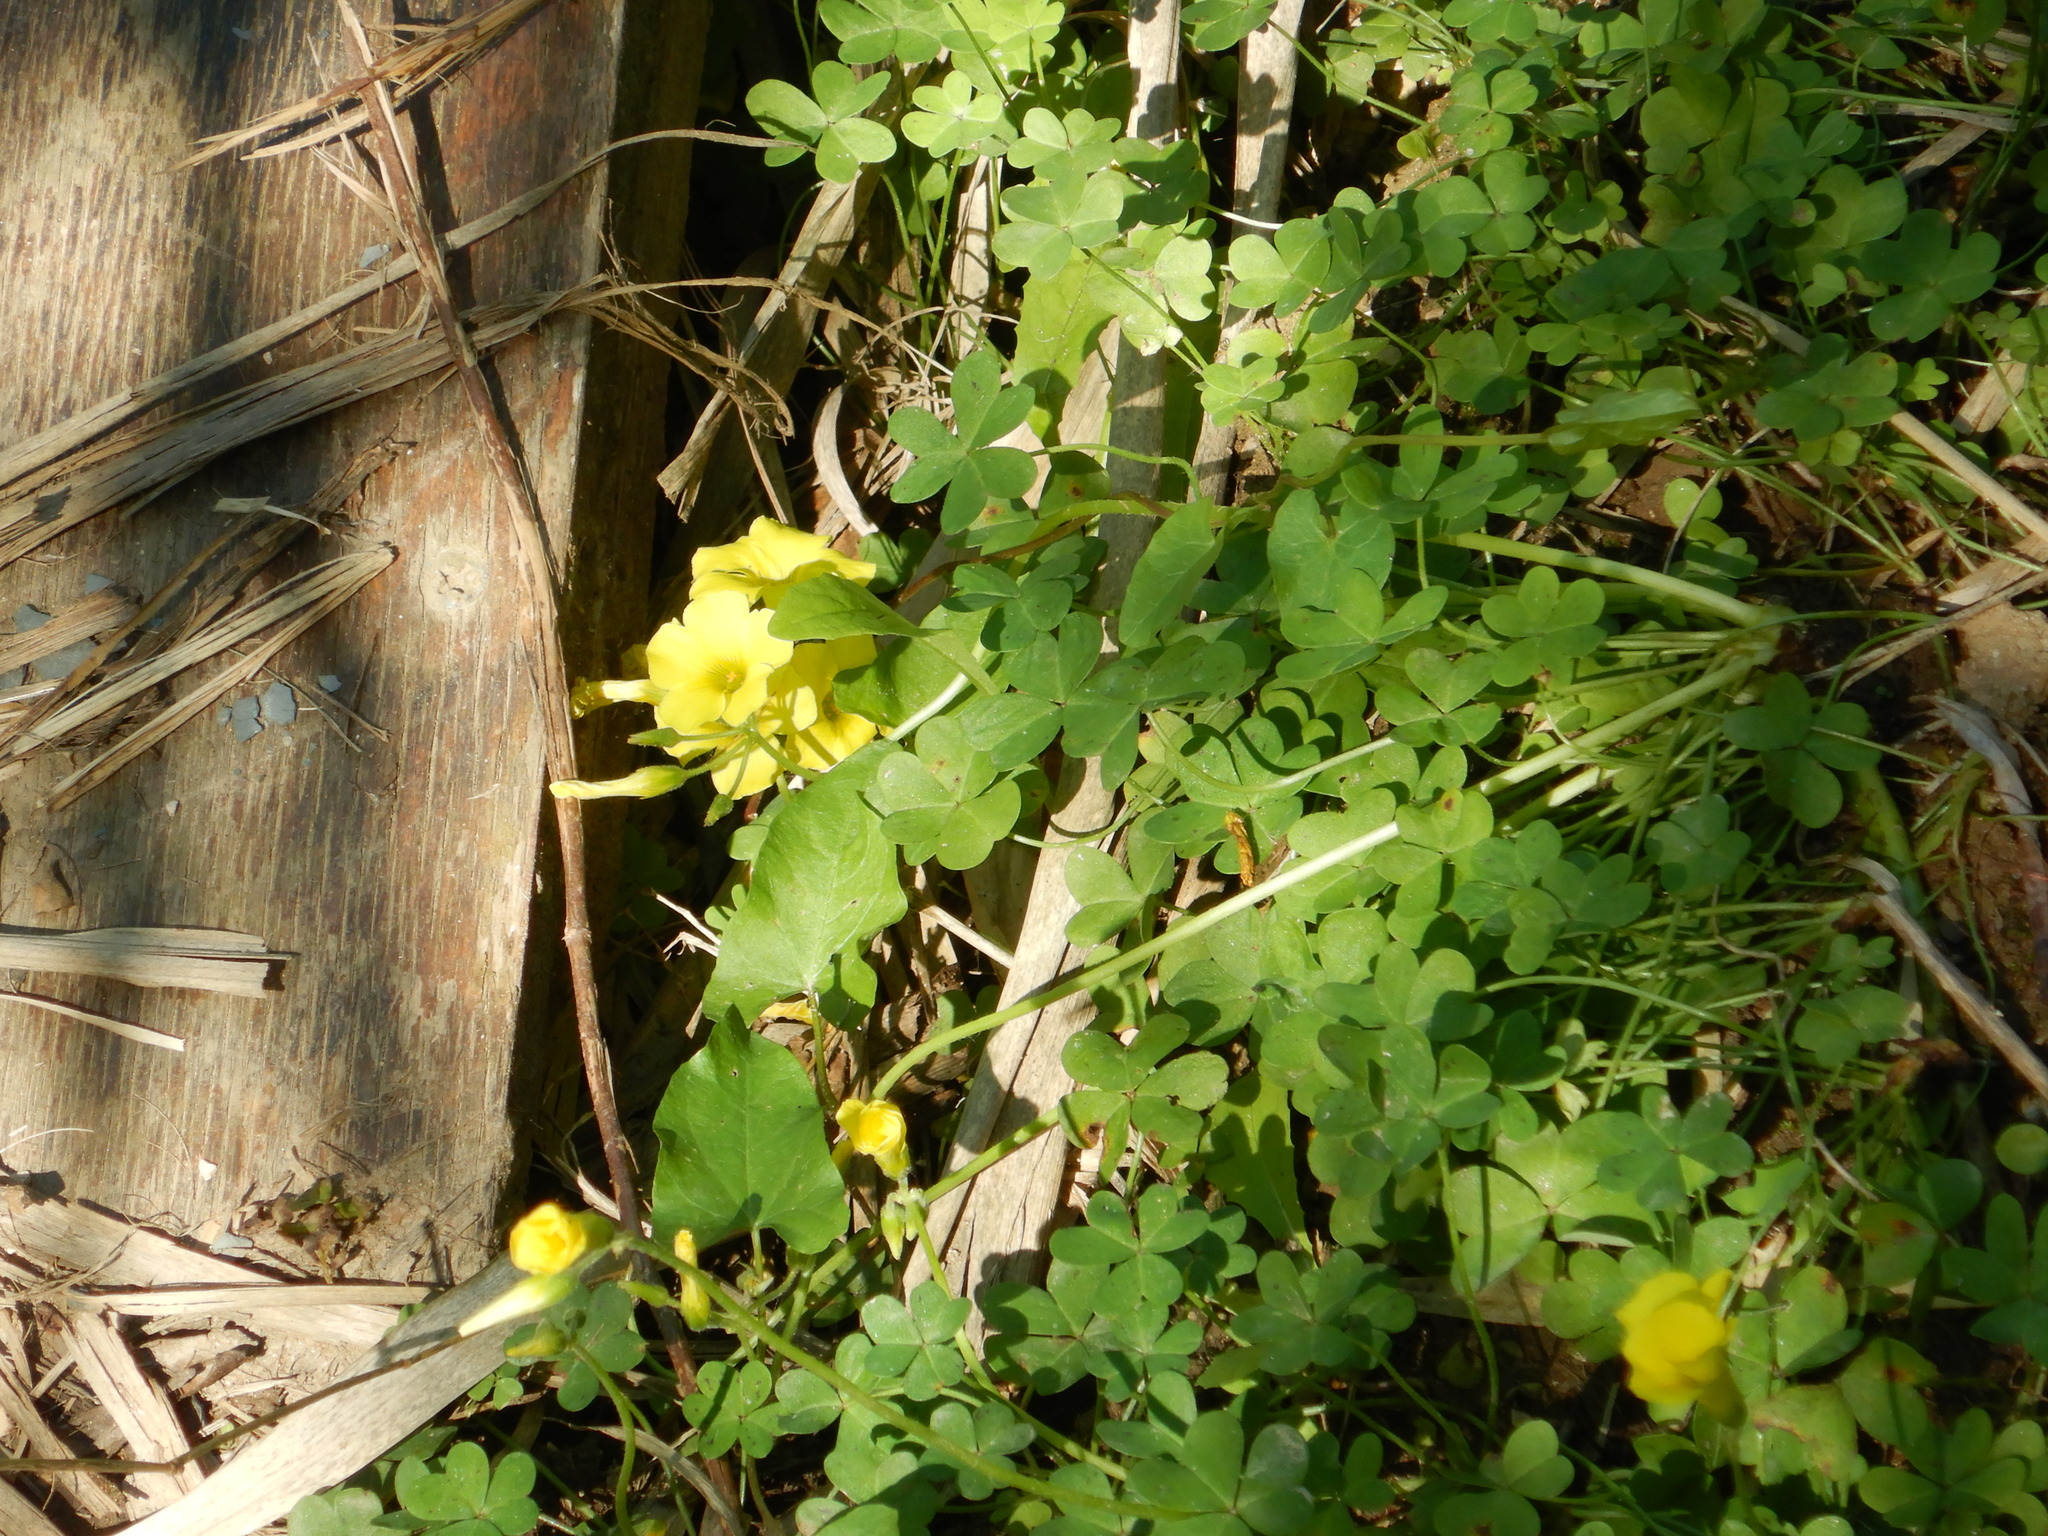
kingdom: Plantae
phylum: Tracheophyta
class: Magnoliopsida
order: Oxalidales
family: Oxalidaceae
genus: Oxalis
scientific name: Oxalis pes-caprae
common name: Bermuda-buttercup
